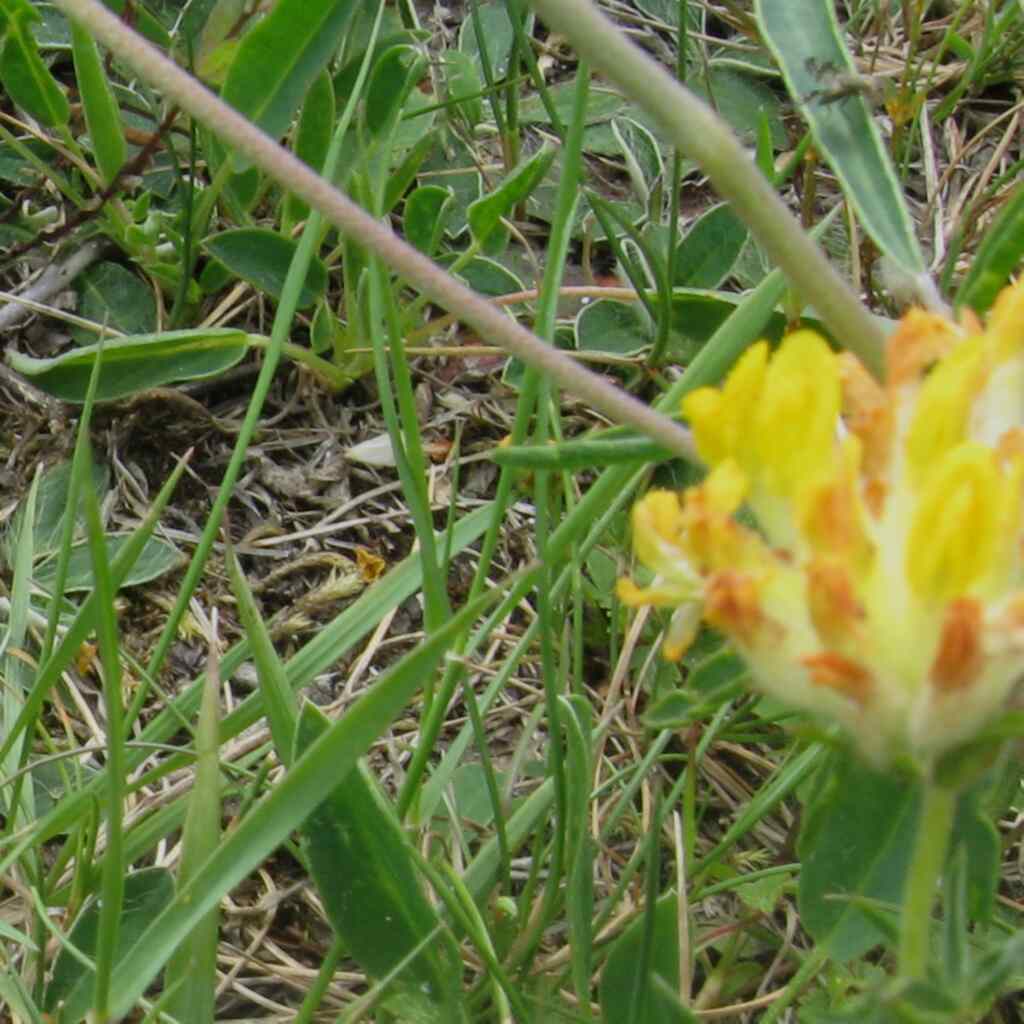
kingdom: Plantae
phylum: Tracheophyta
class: Magnoliopsida
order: Fabales
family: Fabaceae
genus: Anthyllis
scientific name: Anthyllis vulneraria
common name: Kidney vetch
